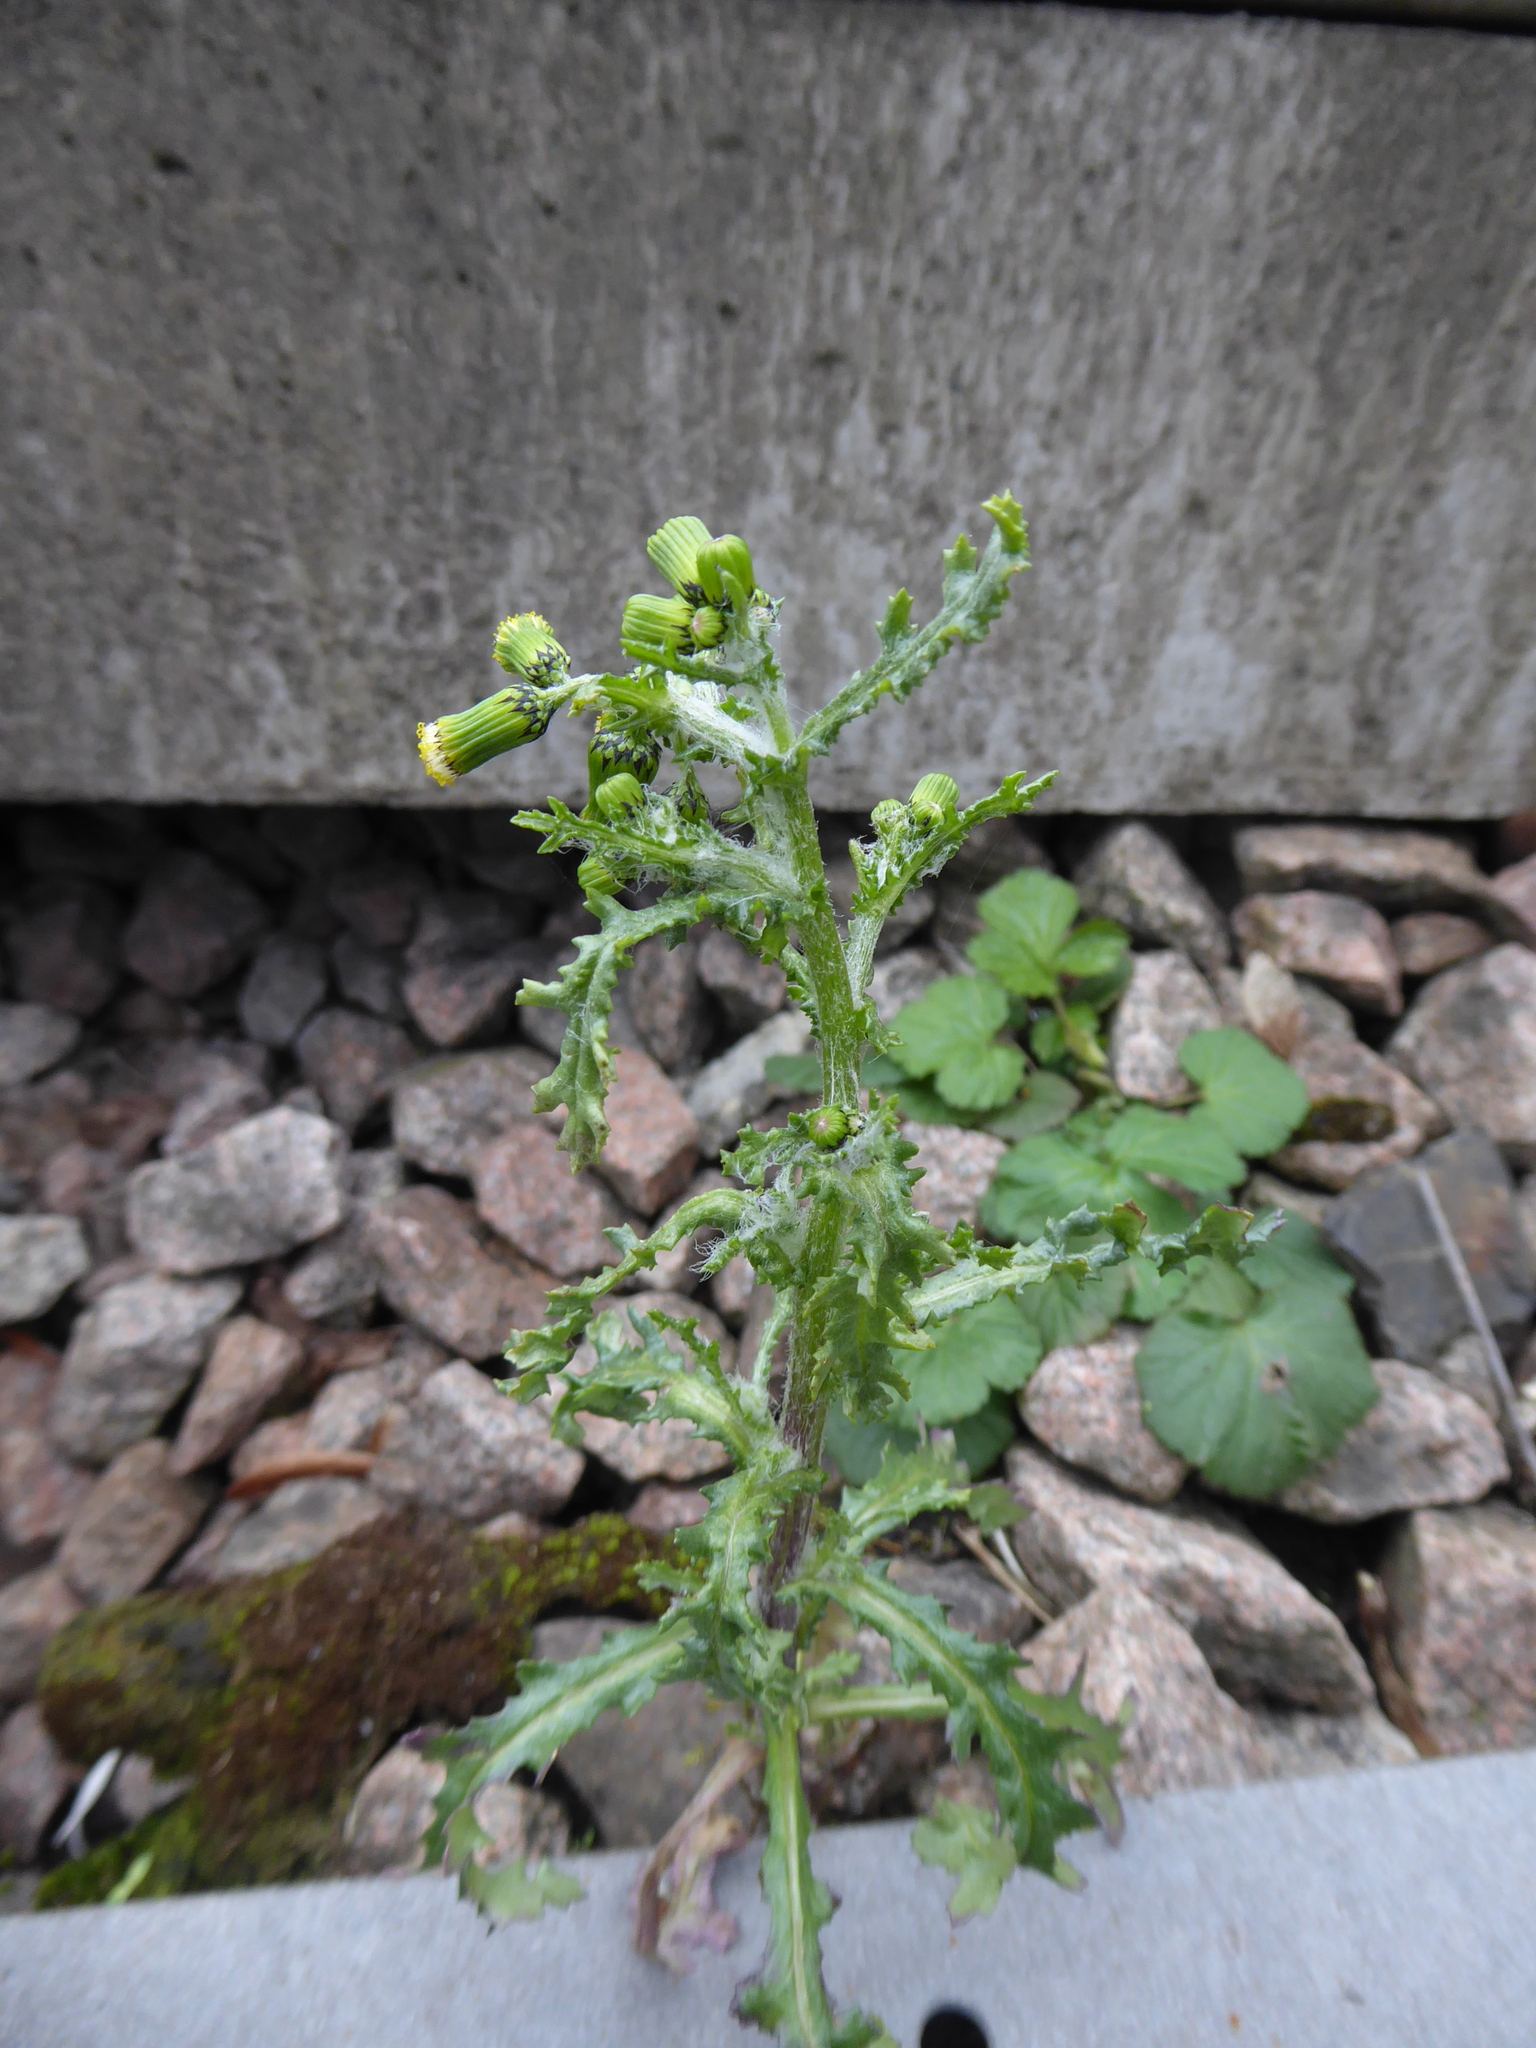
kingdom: Plantae
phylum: Tracheophyta
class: Magnoliopsida
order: Asterales
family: Asteraceae
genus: Senecio
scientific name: Senecio vulgaris
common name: Old-man-in-the-spring
